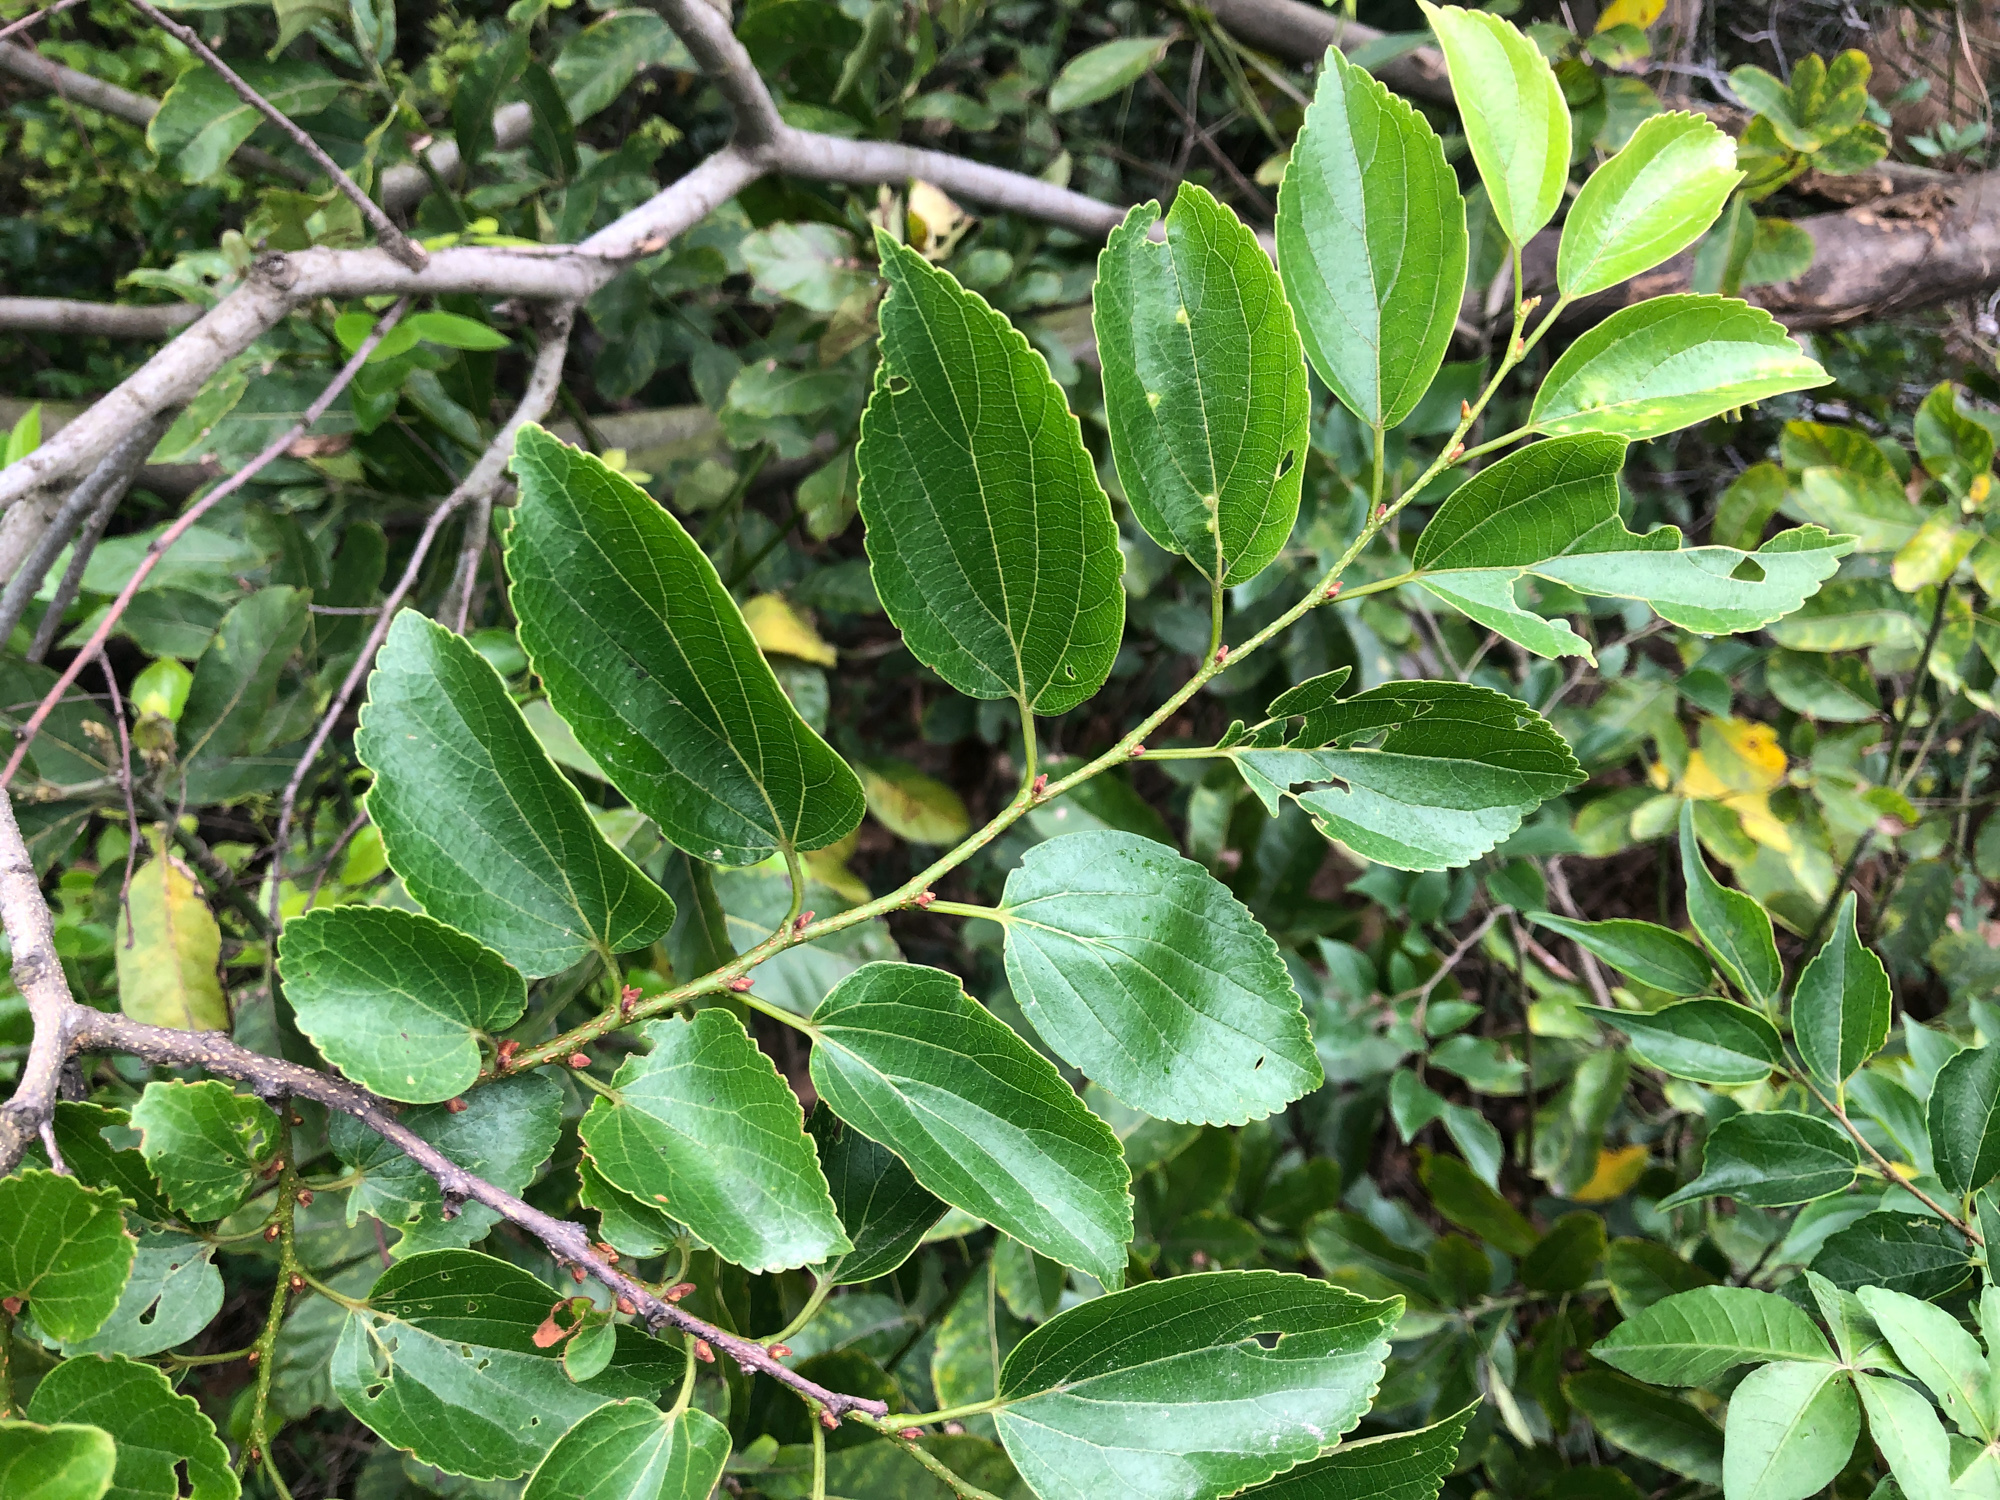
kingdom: Plantae
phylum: Tracheophyta
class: Magnoliopsida
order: Rosales
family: Cannabaceae
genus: Celtis
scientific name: Celtis sinensis
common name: Chinese hackberry
